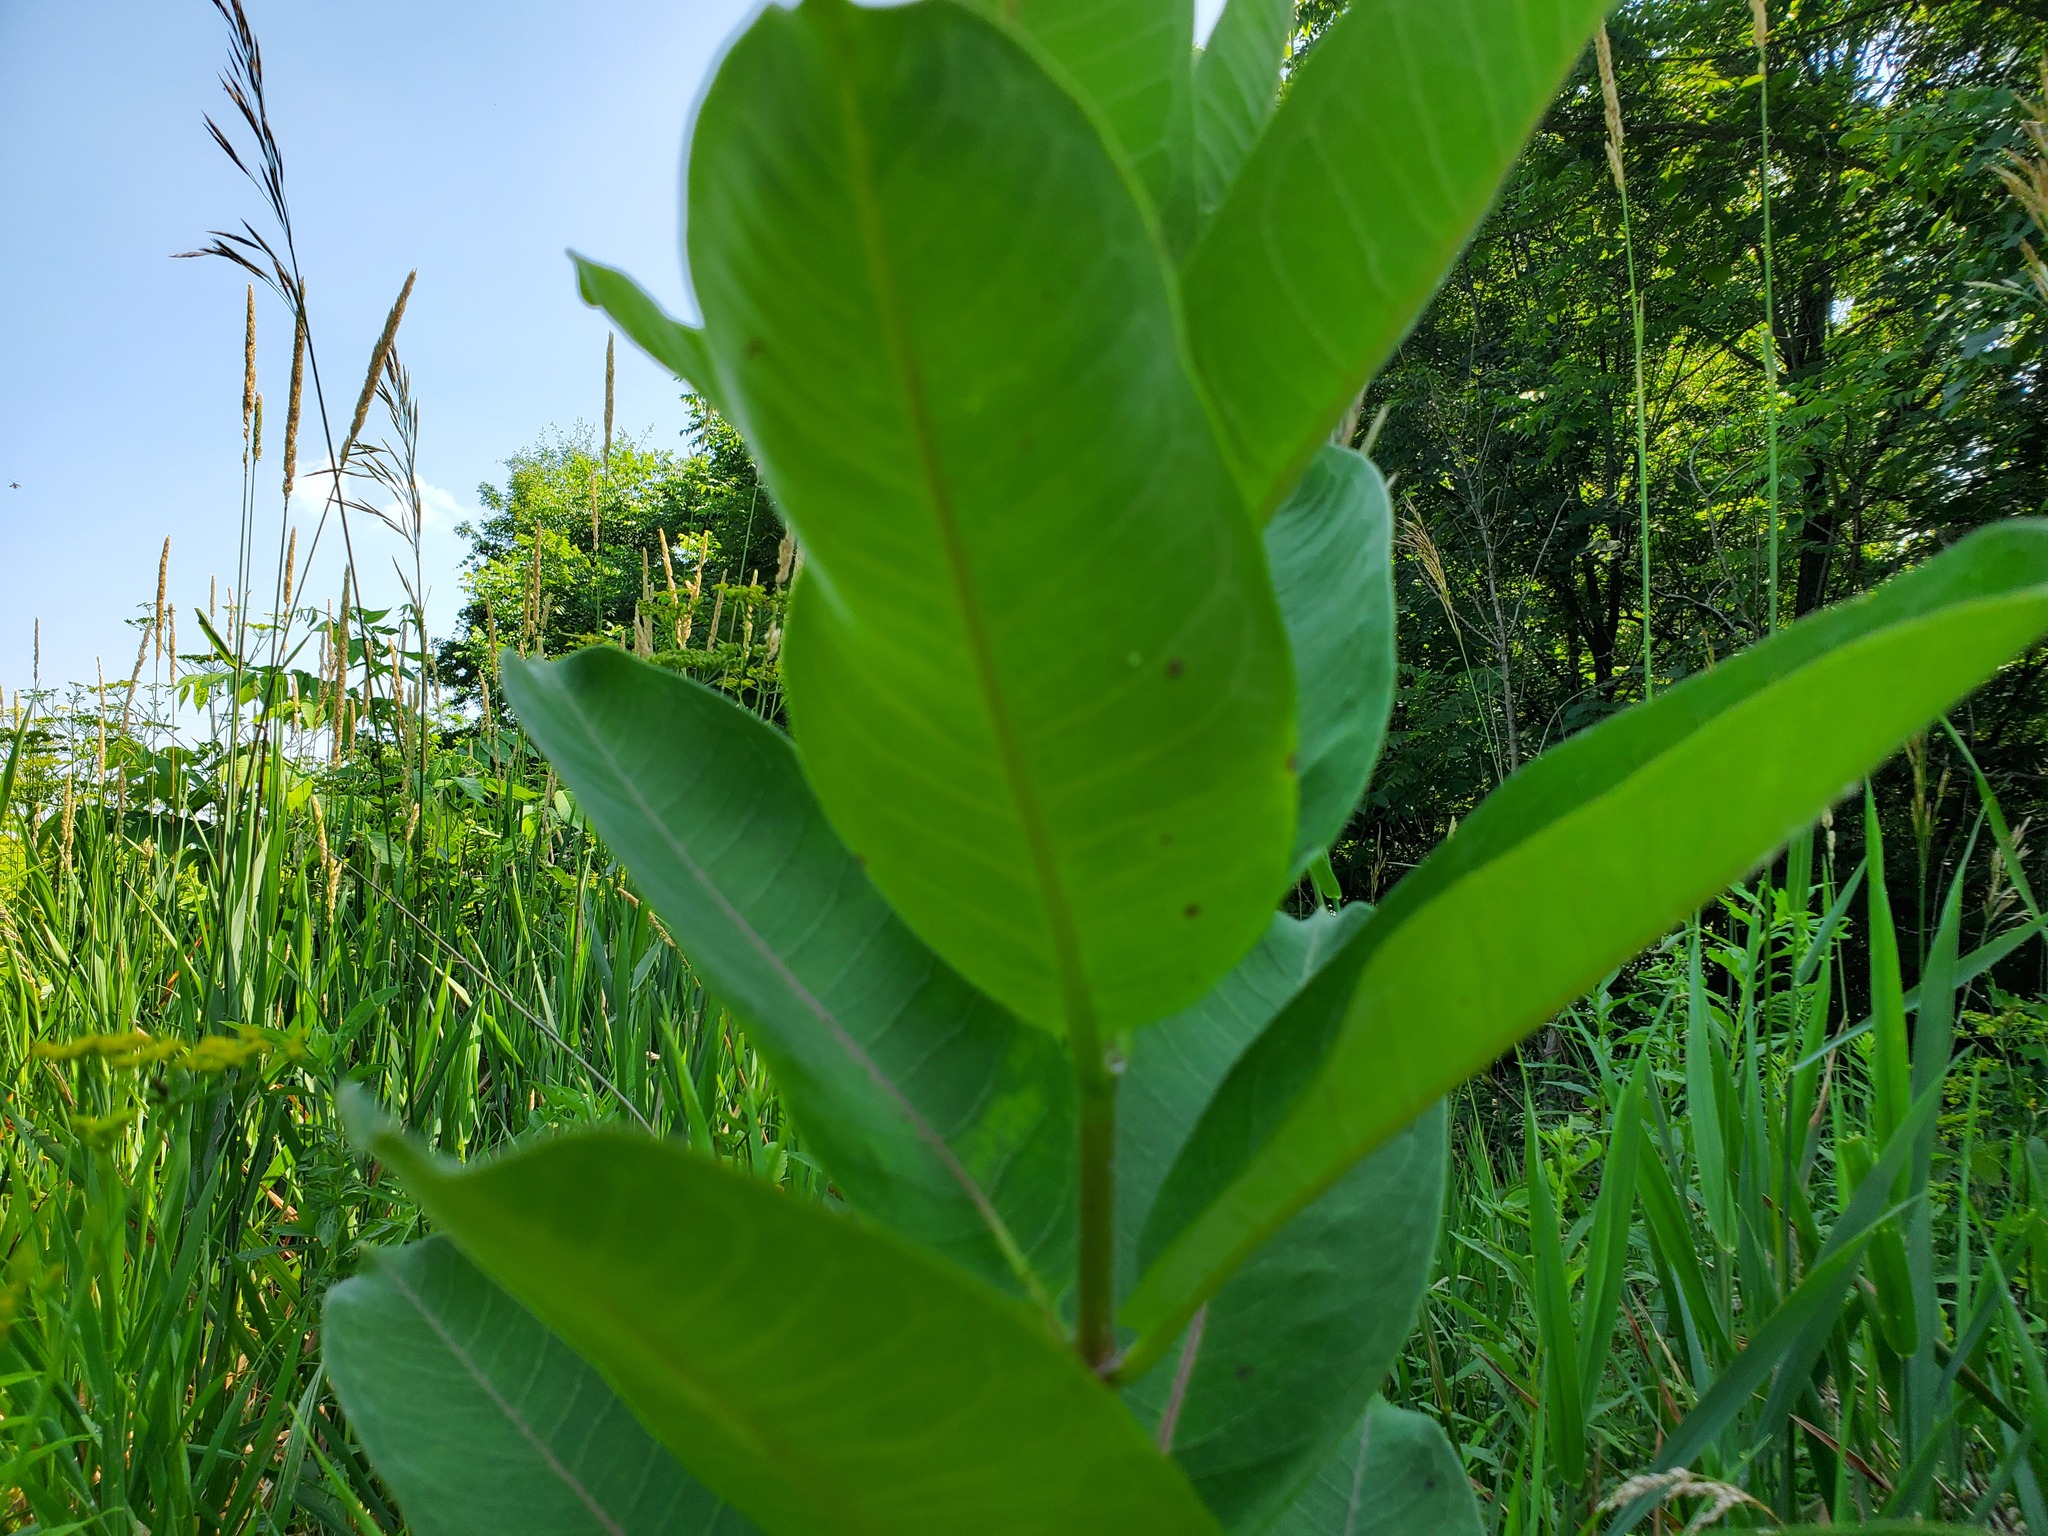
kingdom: Plantae
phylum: Tracheophyta
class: Magnoliopsida
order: Gentianales
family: Apocynaceae
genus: Asclepias
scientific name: Asclepias syriaca
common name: Common milkweed
